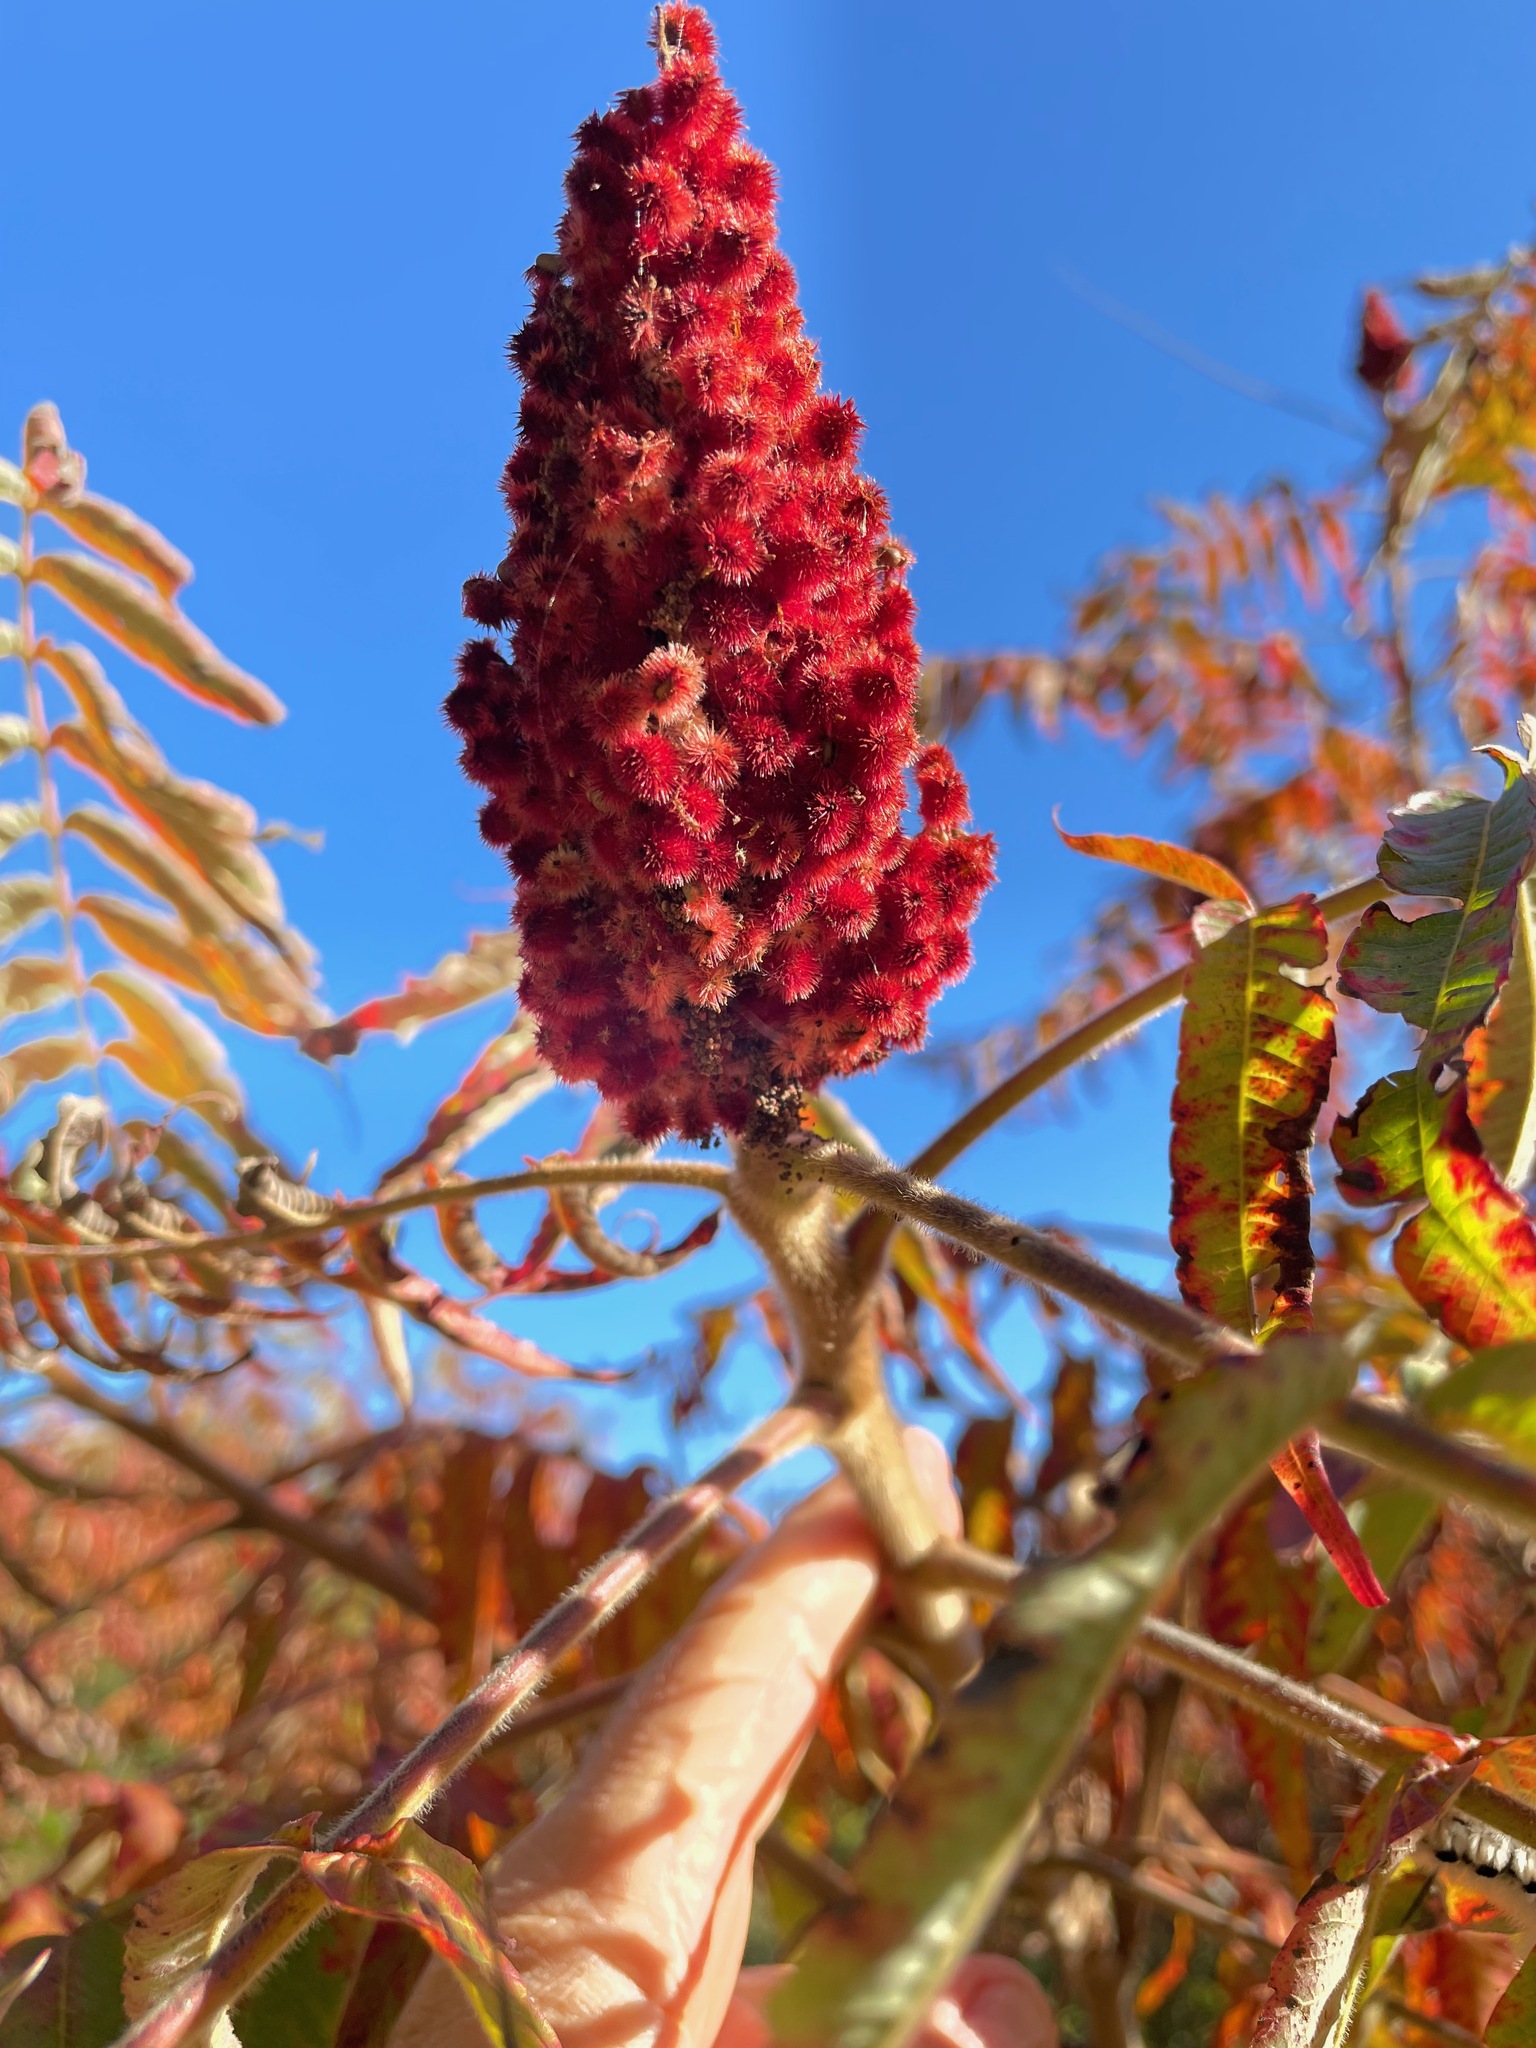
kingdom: Plantae
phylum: Tracheophyta
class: Magnoliopsida
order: Sapindales
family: Anacardiaceae
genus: Rhus
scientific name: Rhus typhina
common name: Staghorn sumac
